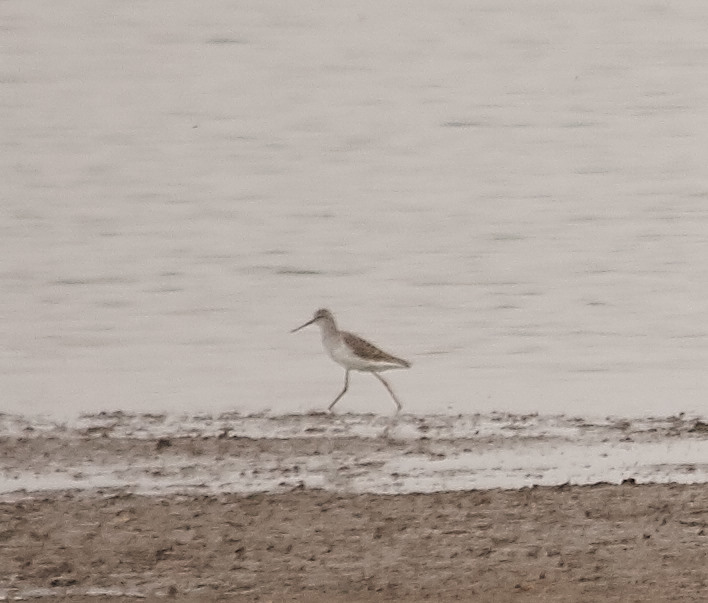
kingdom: Animalia
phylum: Chordata
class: Aves
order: Charadriiformes
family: Scolopacidae
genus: Tringa
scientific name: Tringa stagnatilis
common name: Marsh sandpiper
